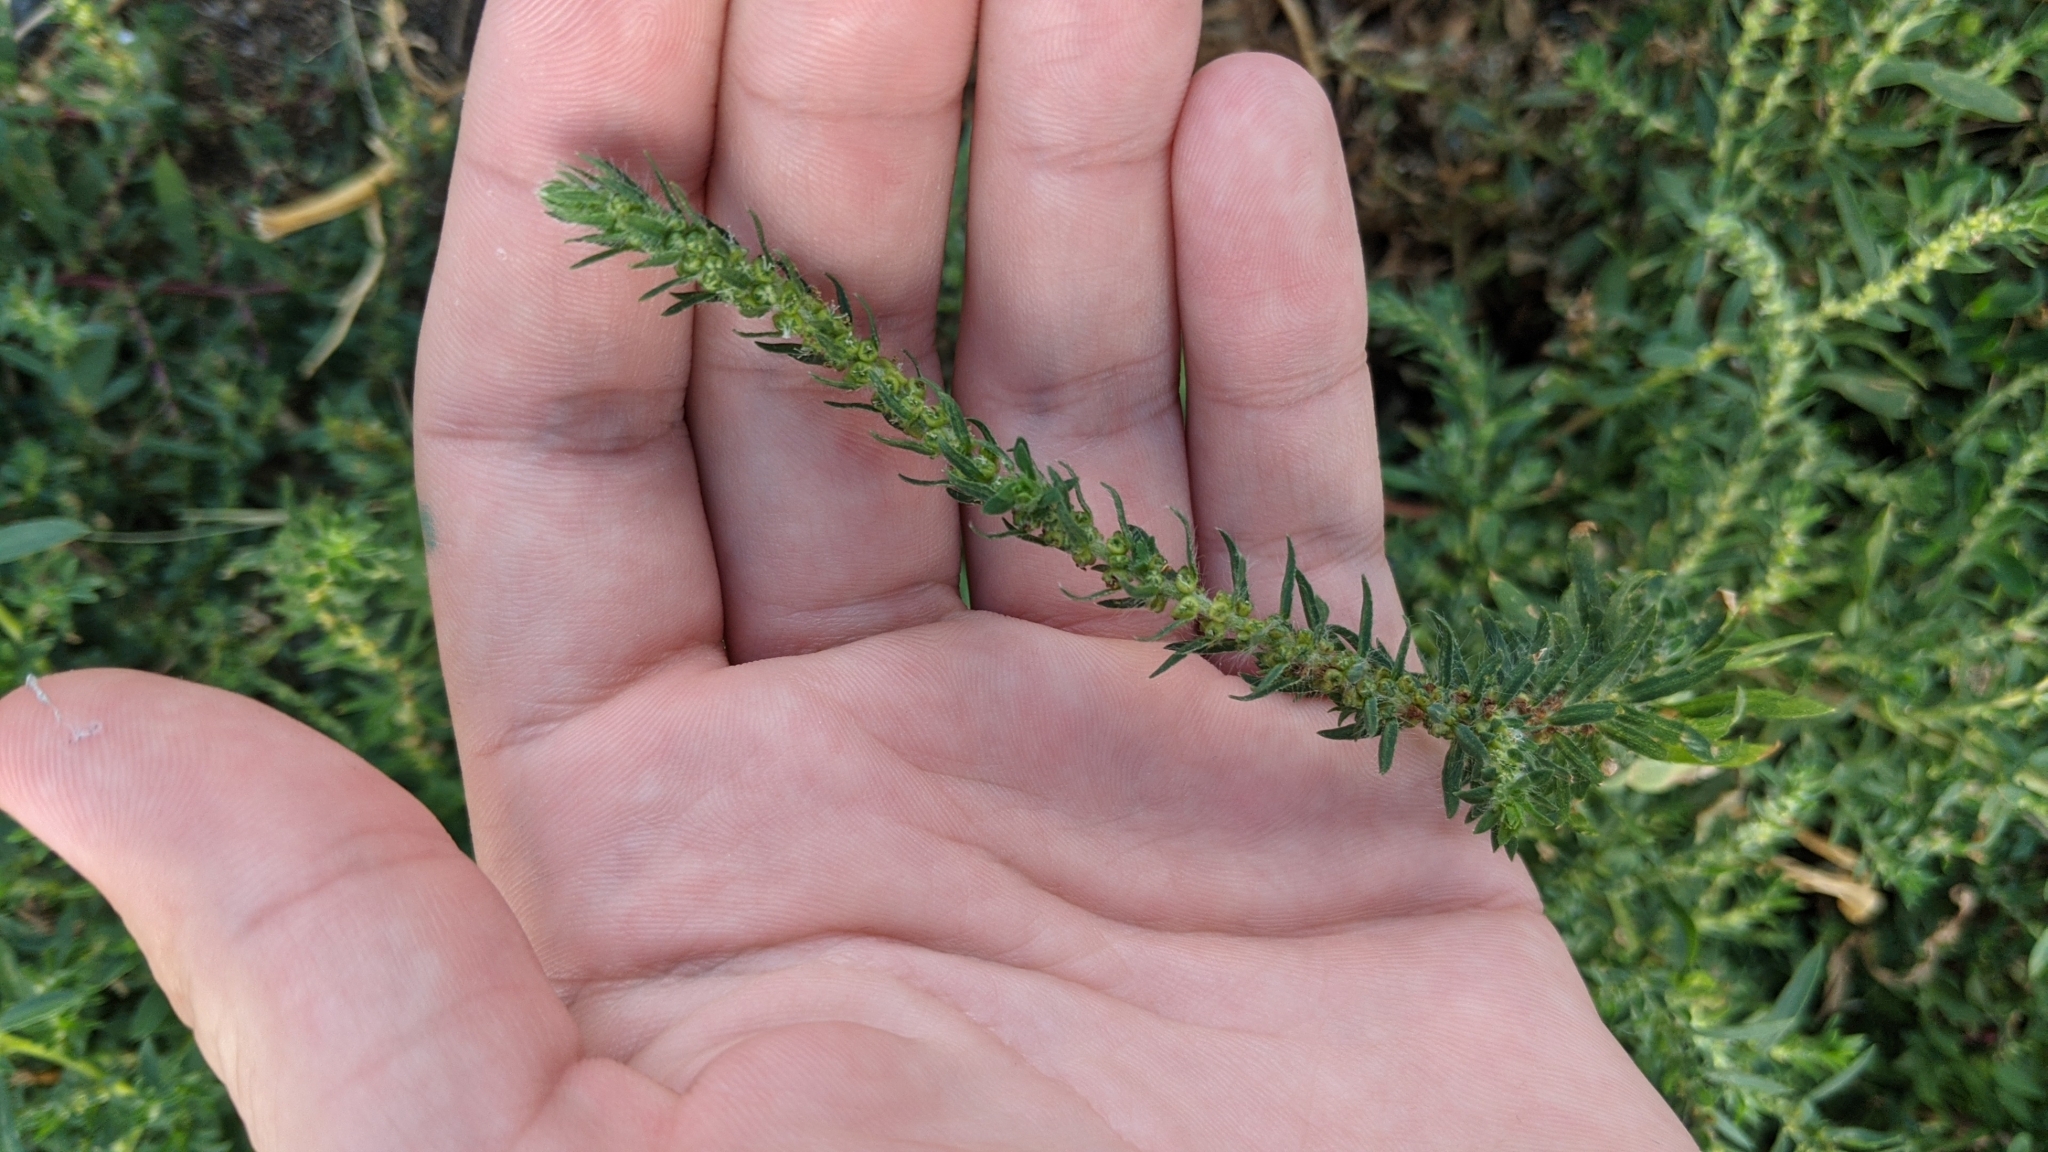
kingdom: Plantae
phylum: Tracheophyta
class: Magnoliopsida
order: Caryophyllales
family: Amaranthaceae
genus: Bassia
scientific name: Bassia scoparia
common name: Belvedere
